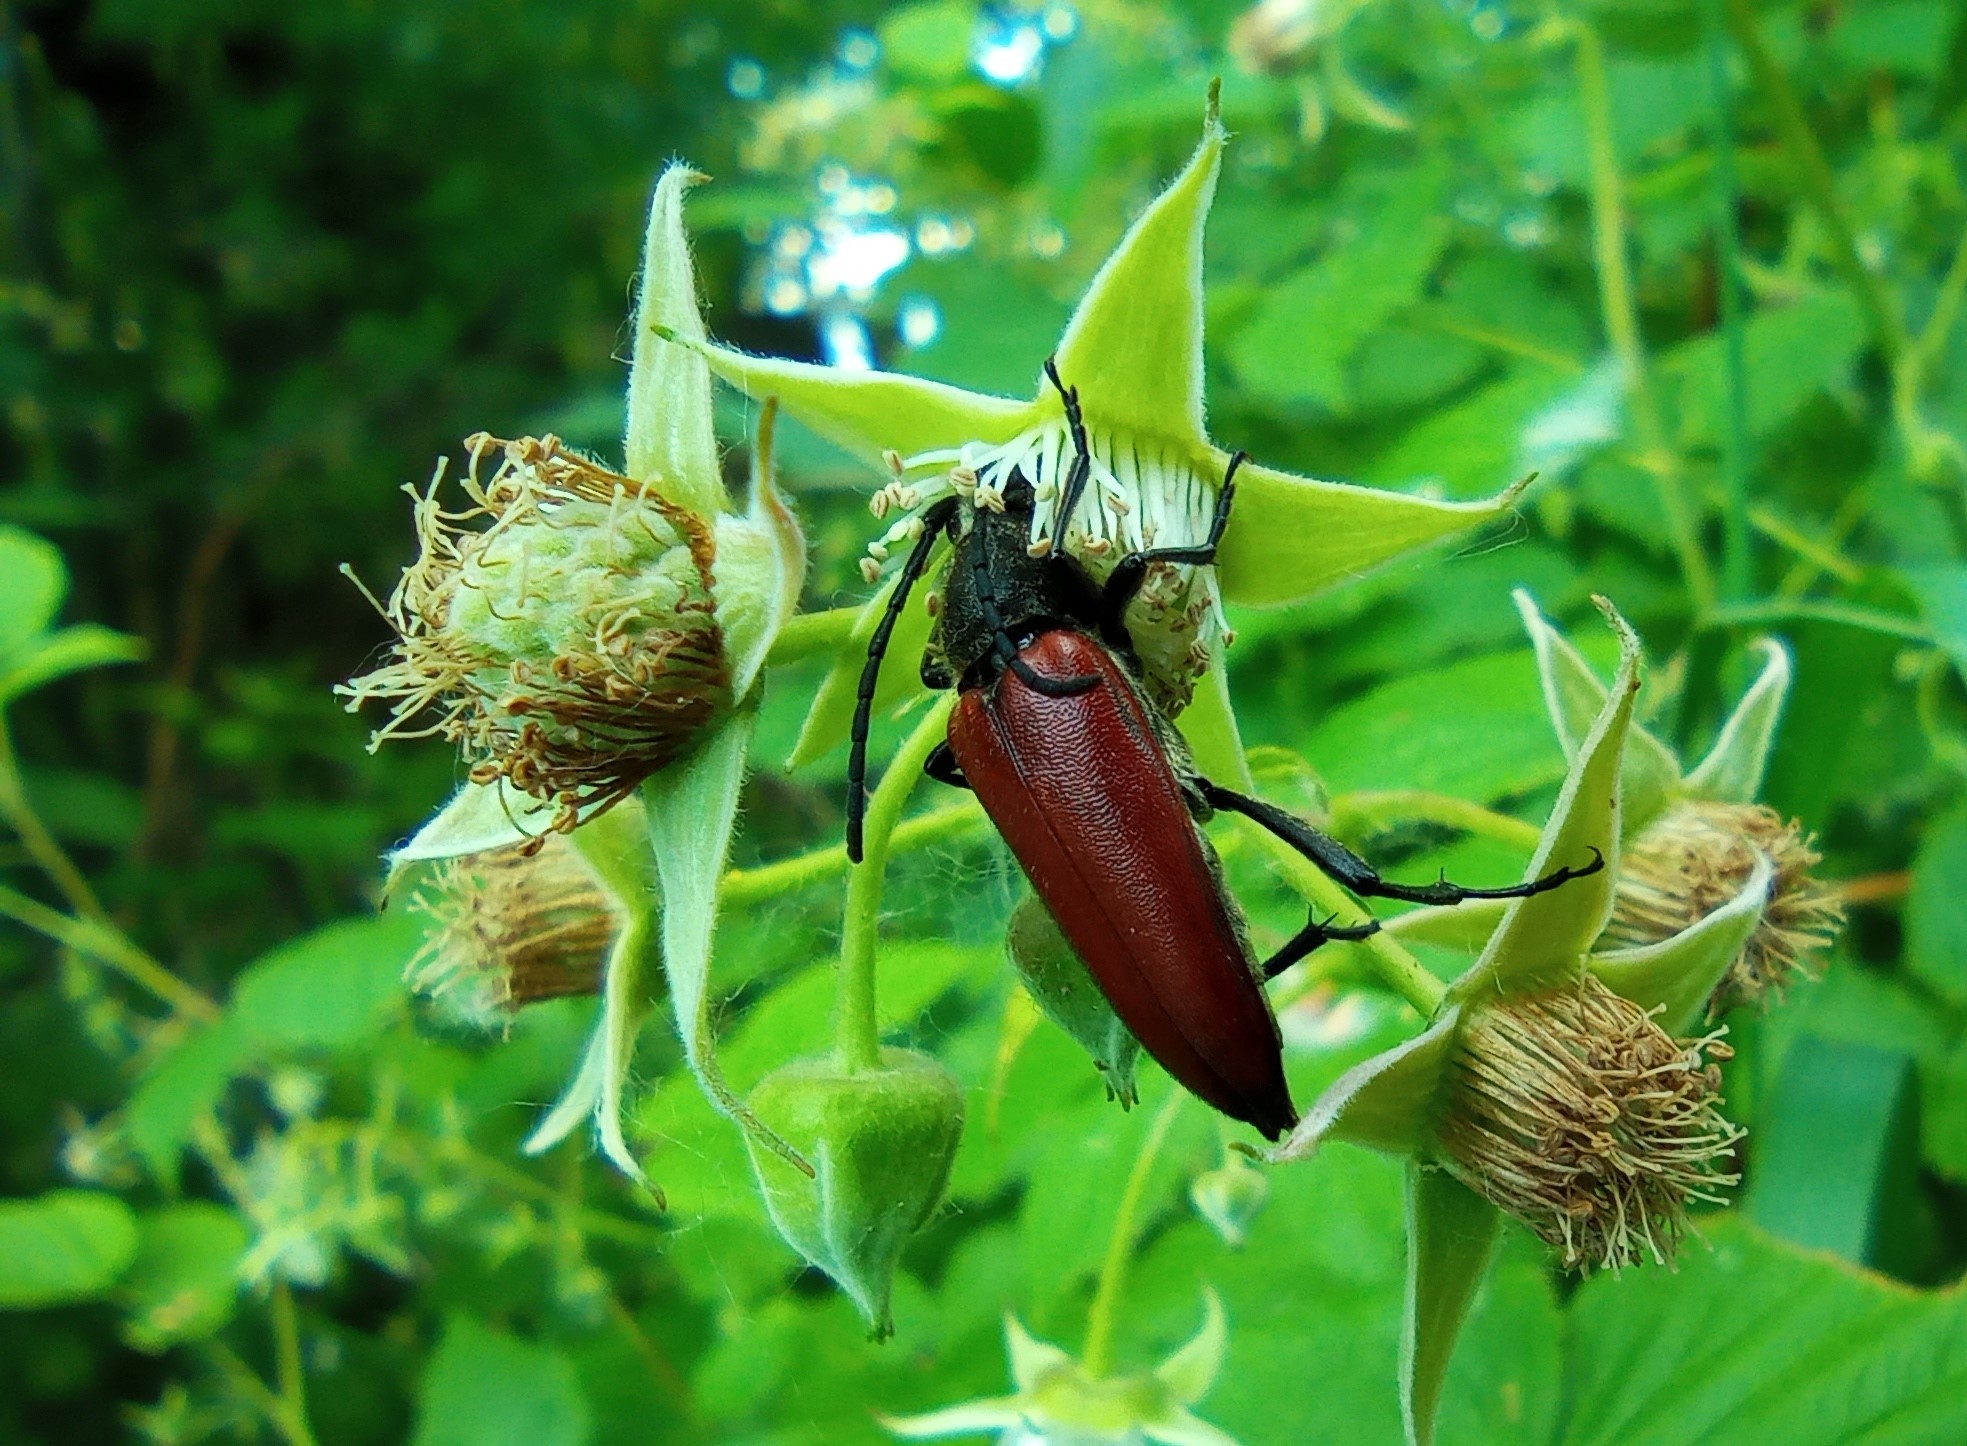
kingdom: Animalia
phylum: Arthropoda
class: Insecta
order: Coleoptera
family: Cerambycidae
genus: Lepturalia
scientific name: Lepturalia nigripes
